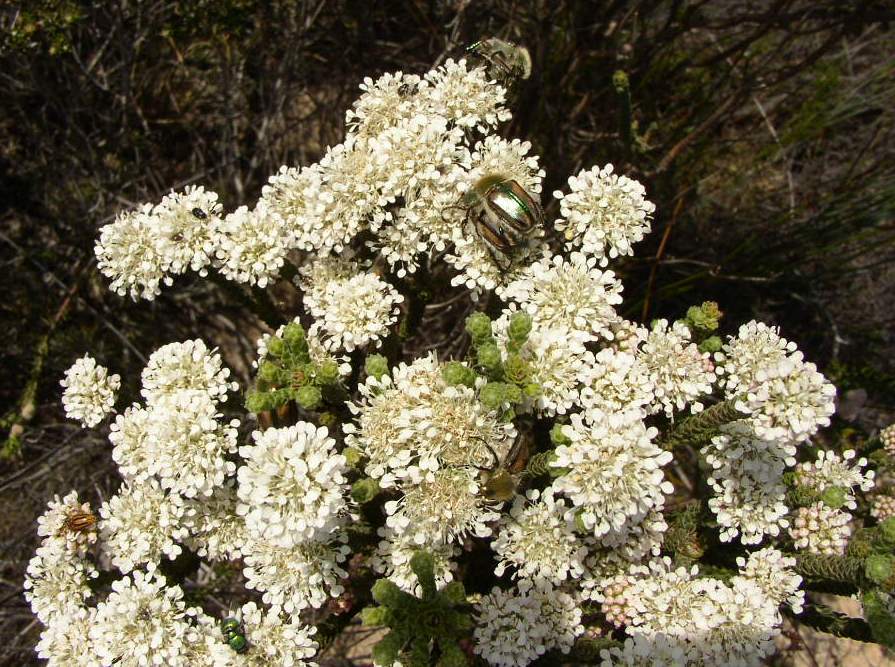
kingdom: Plantae
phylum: Tracheophyta
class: Magnoliopsida
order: Sapindales
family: Rutaceae
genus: Agathosma
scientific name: Agathosma imbricata
